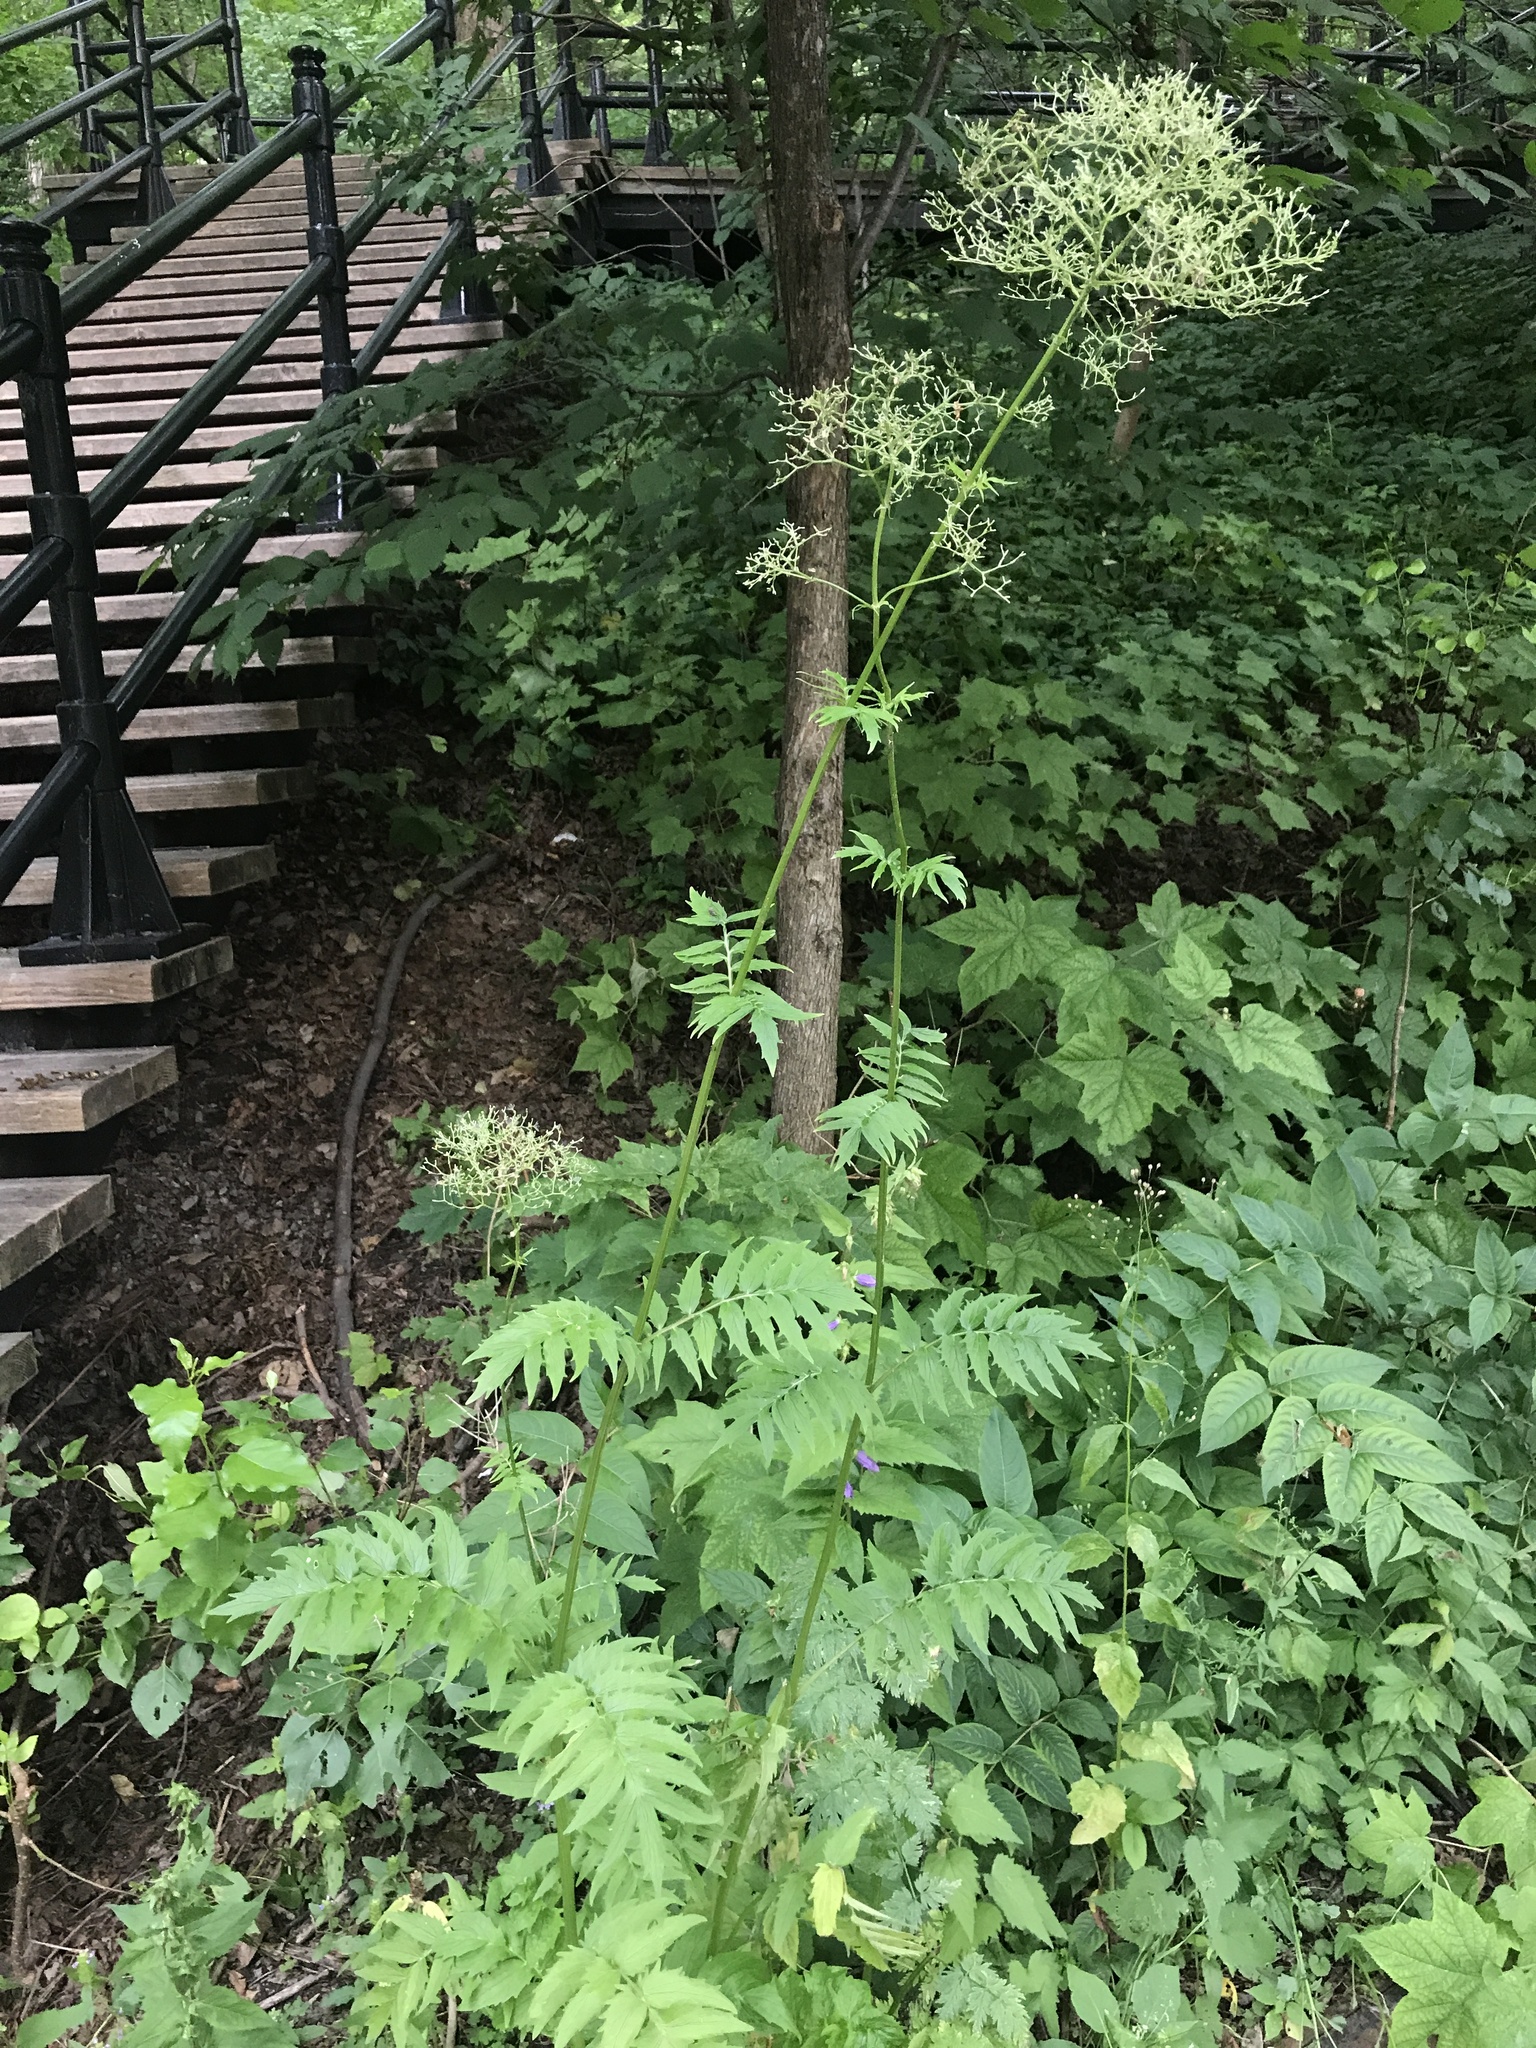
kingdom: Plantae
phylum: Tracheophyta
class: Magnoliopsida
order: Dipsacales
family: Caprifoliaceae
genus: Valeriana
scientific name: Valeriana officinalis
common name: Common valerian
